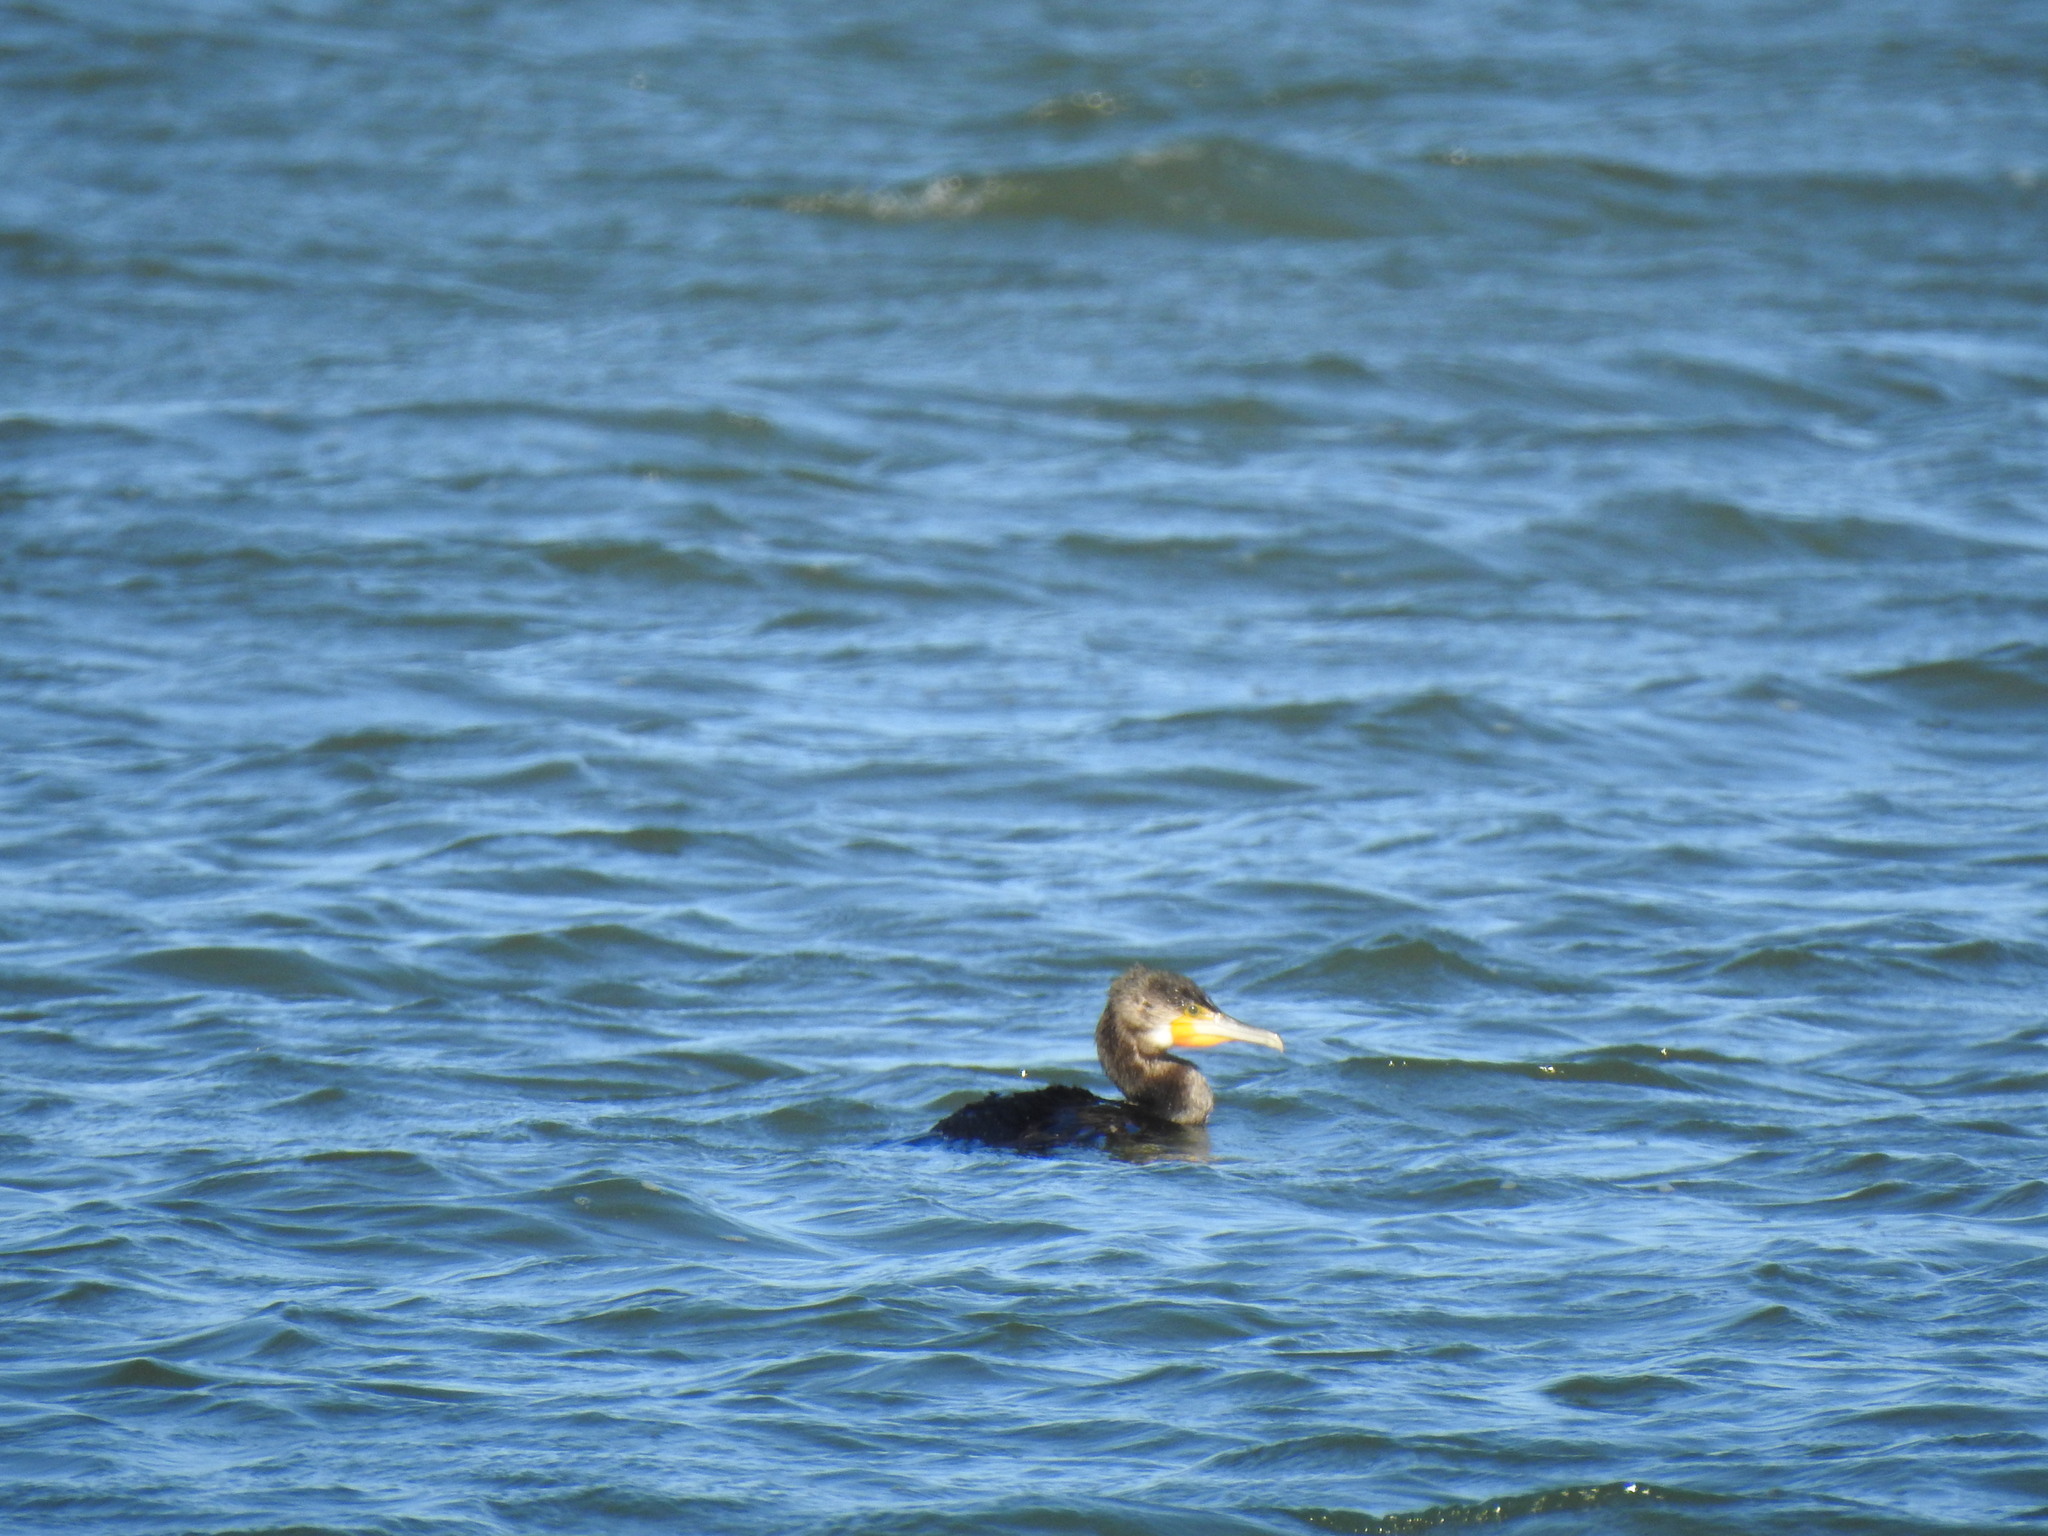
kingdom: Animalia
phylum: Chordata
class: Aves
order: Suliformes
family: Phalacrocoracidae
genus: Phalacrocorax
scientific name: Phalacrocorax carbo
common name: Great cormorant
